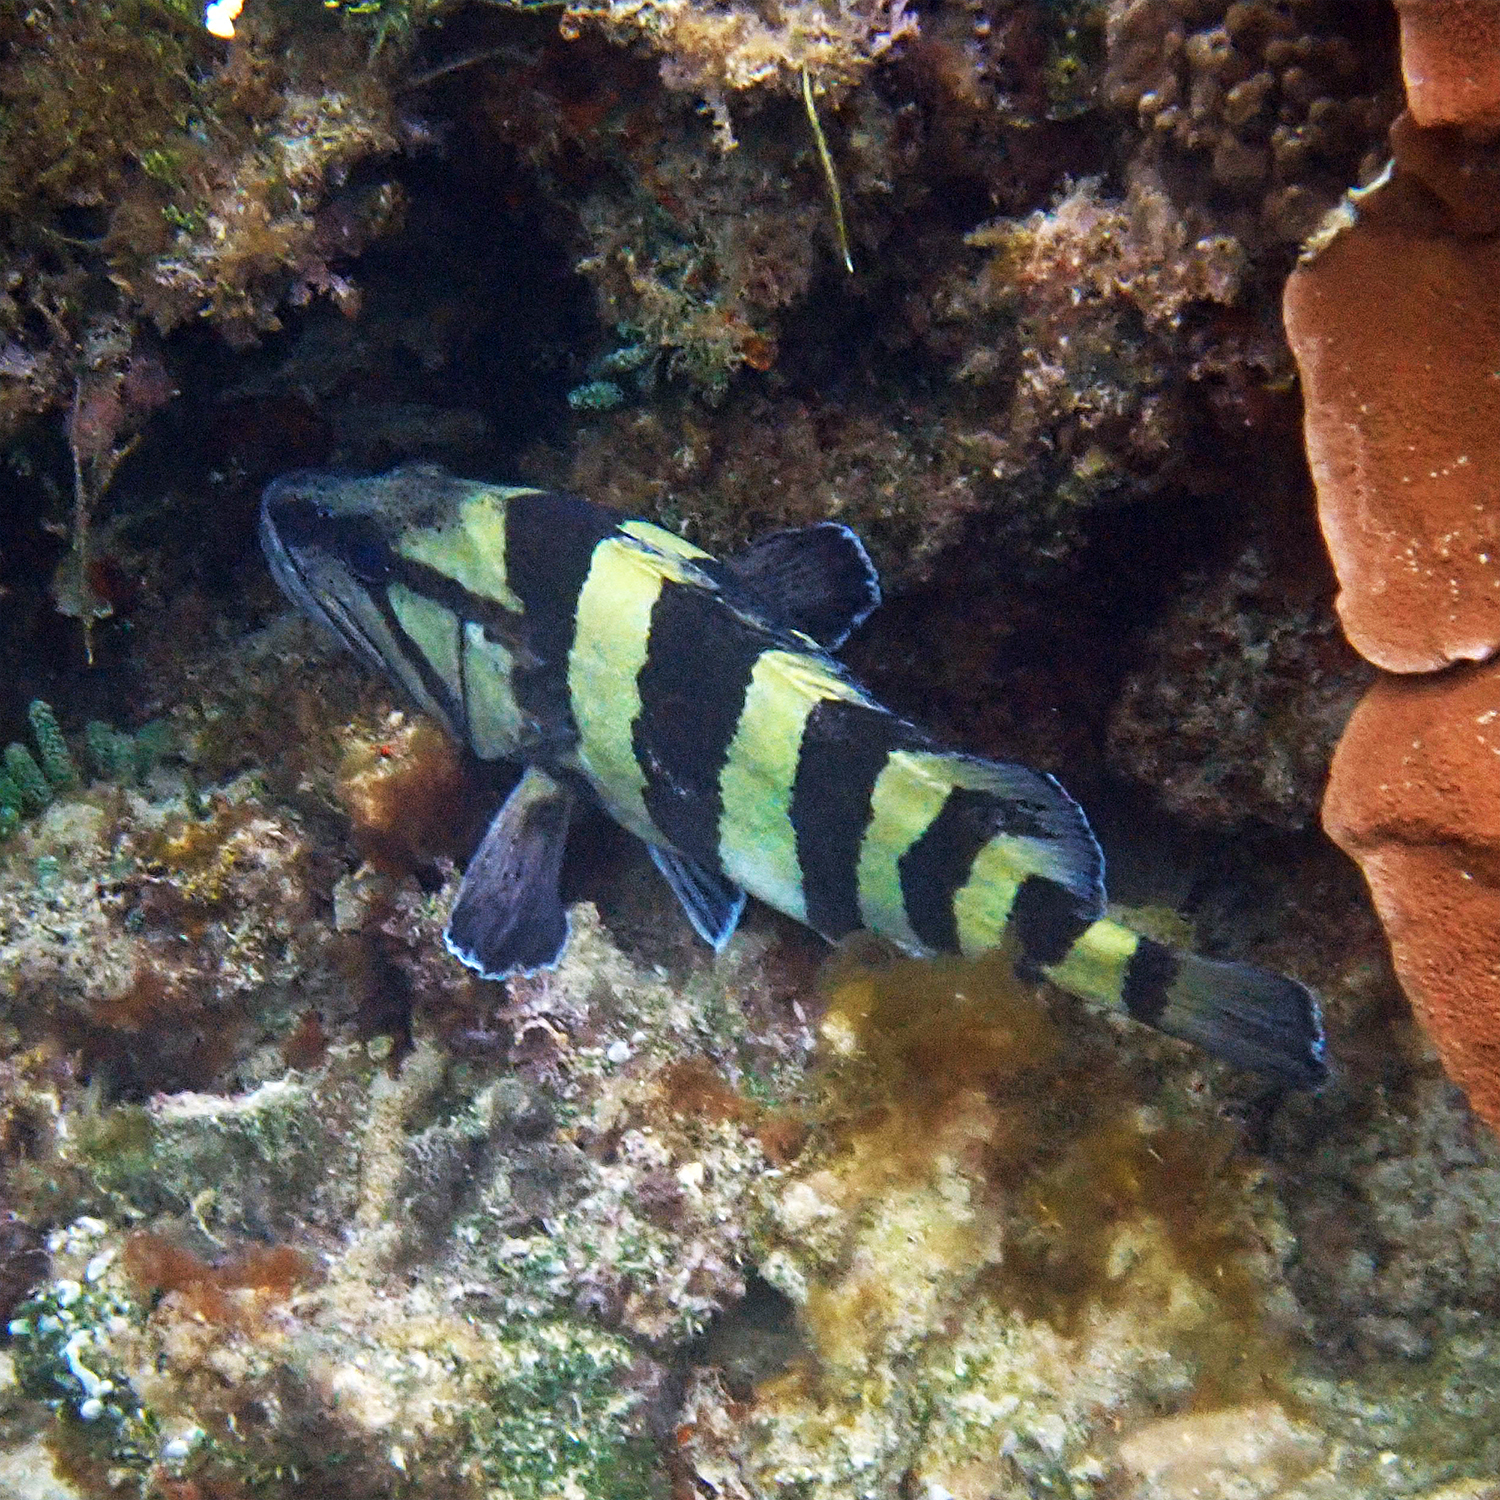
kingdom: Animalia
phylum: Chordata
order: Perciformes
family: Serranidae
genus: Acanthistius
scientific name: Acanthistius cinctus
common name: Girdled rock cod
